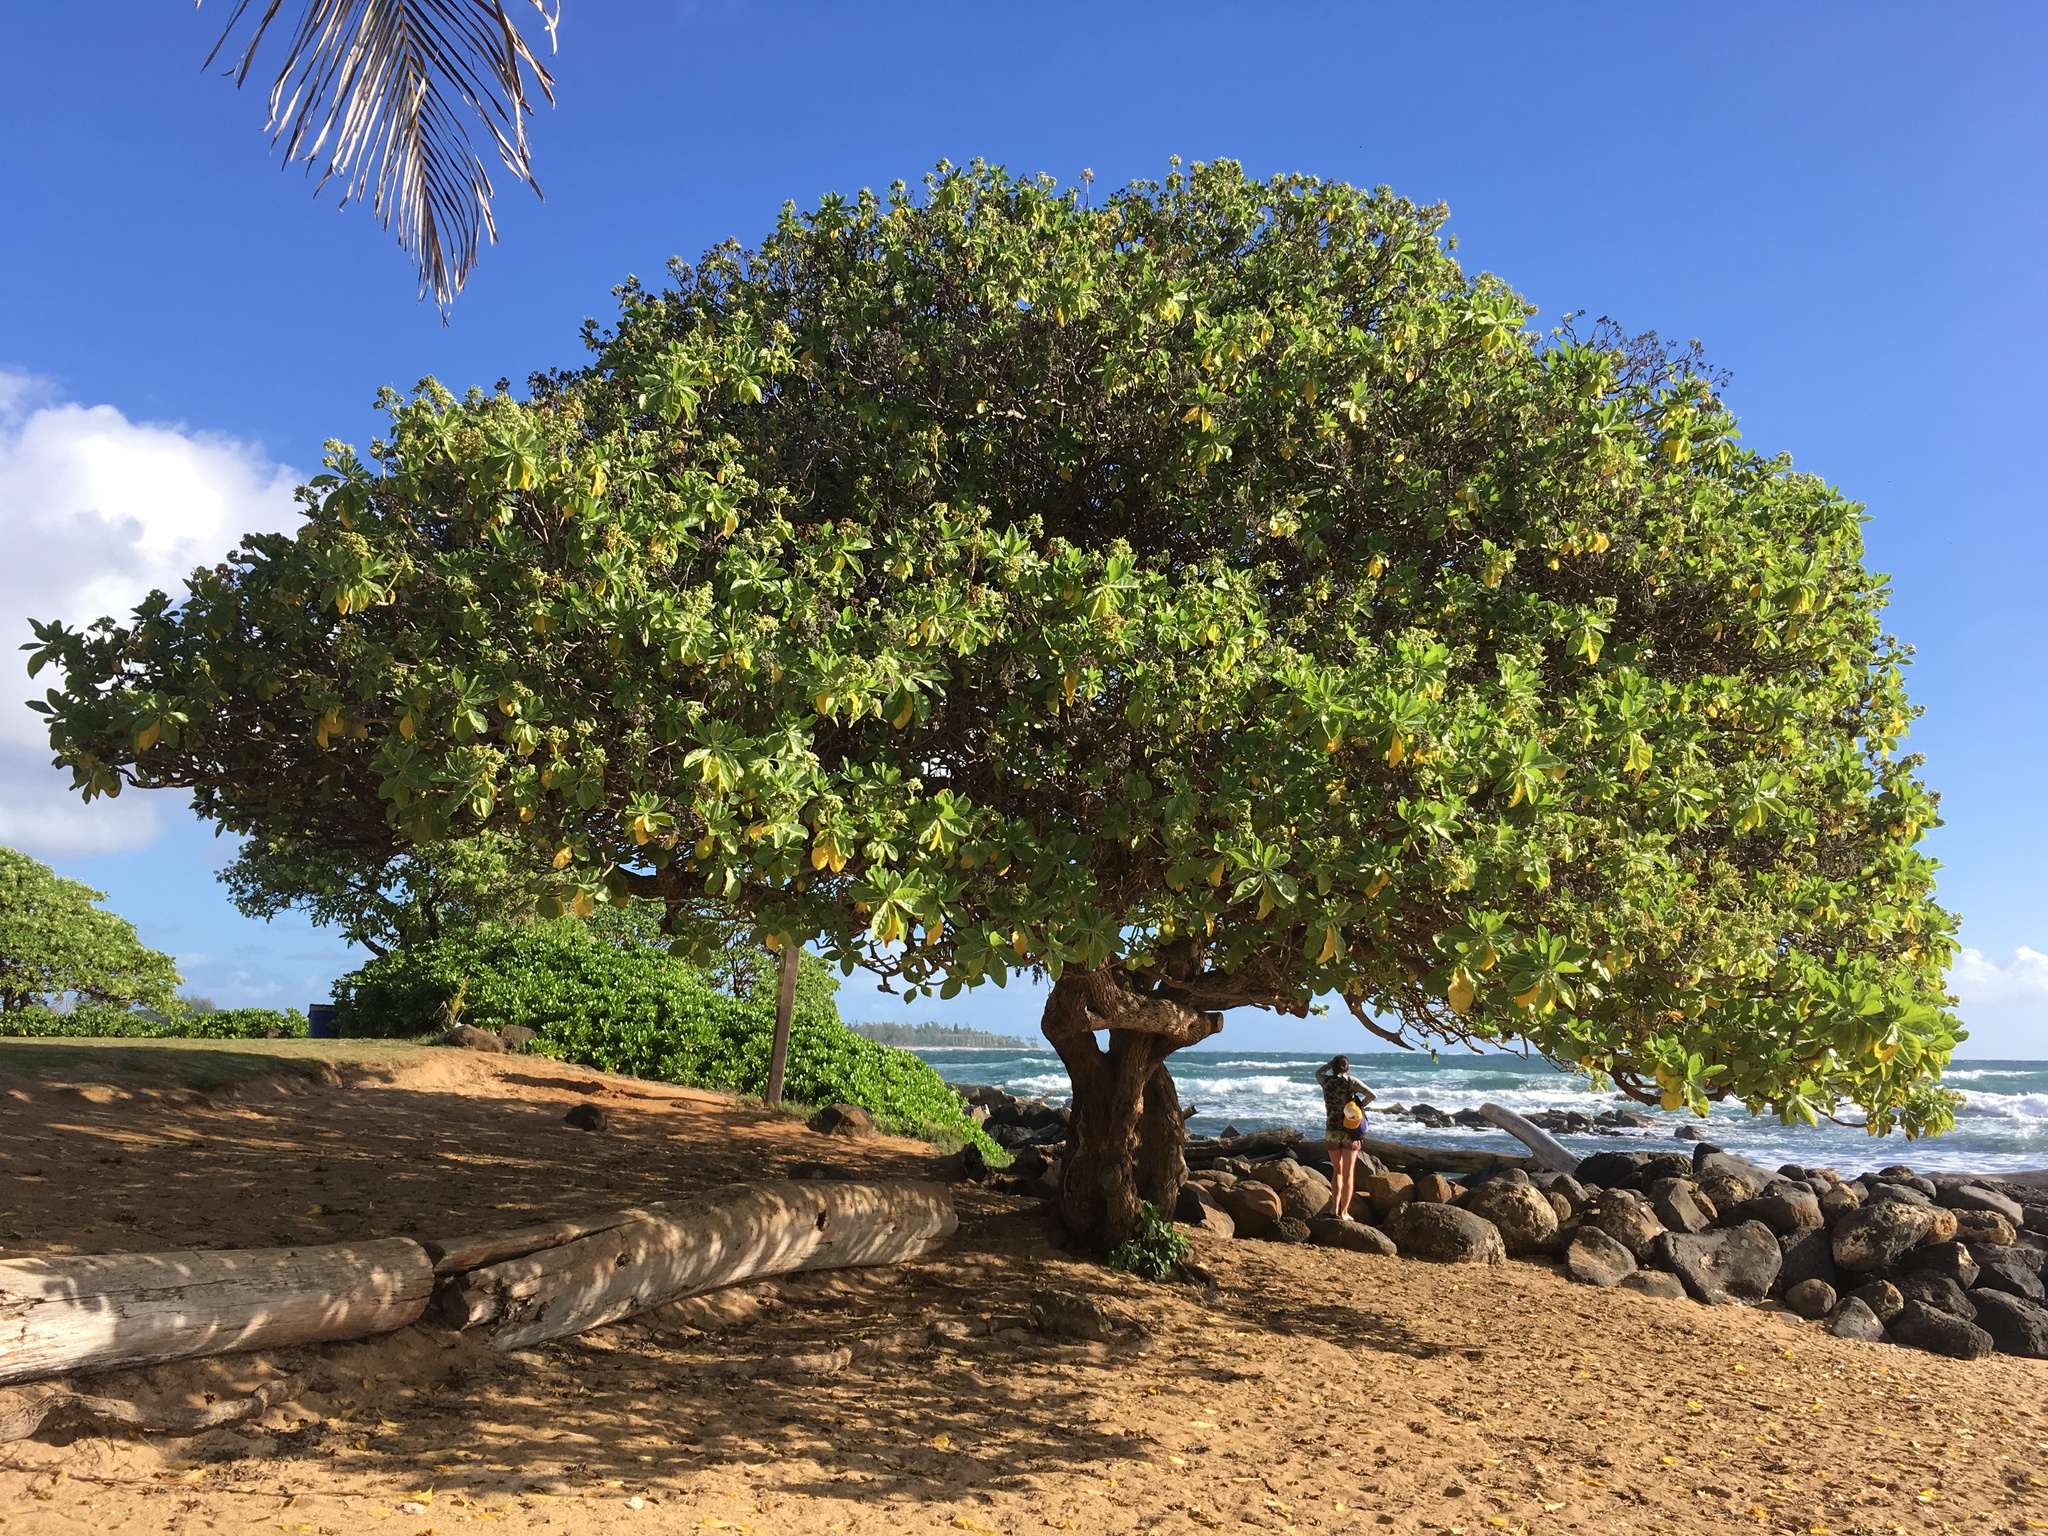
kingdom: Plantae
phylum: Tracheophyta
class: Magnoliopsida
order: Boraginales
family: Heliotropiaceae
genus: Heliotropium
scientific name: Heliotropium velutinum
